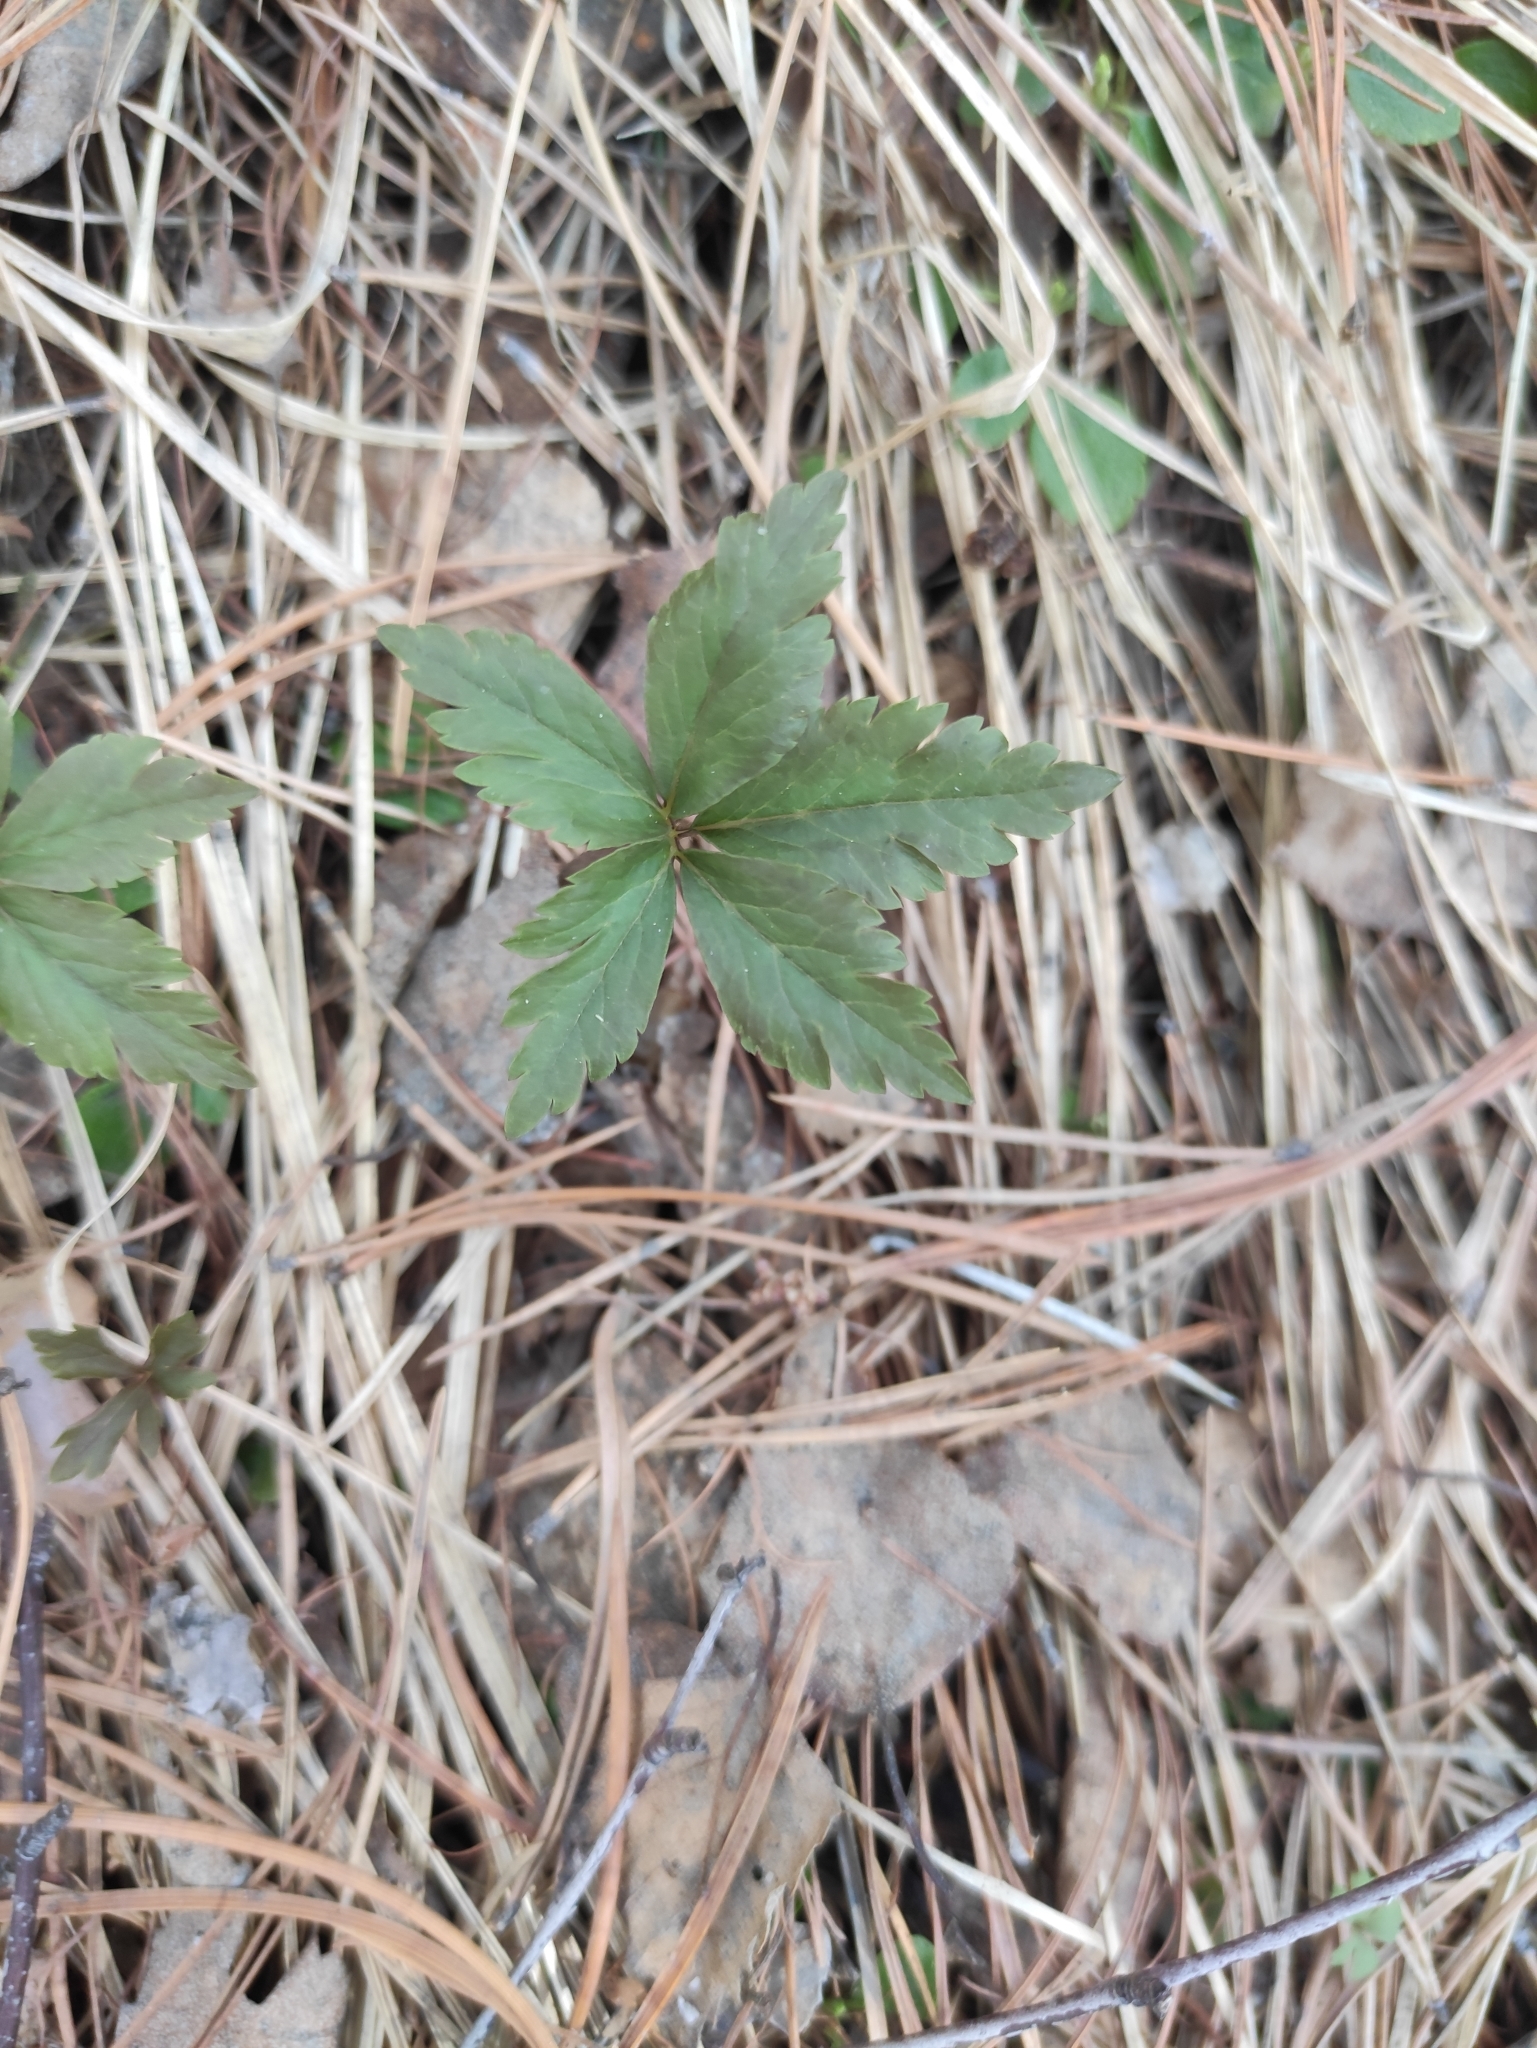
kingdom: Plantae
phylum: Tracheophyta
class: Magnoliopsida
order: Ranunculales
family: Ranunculaceae
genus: Anemone
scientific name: Anemone reflexa
